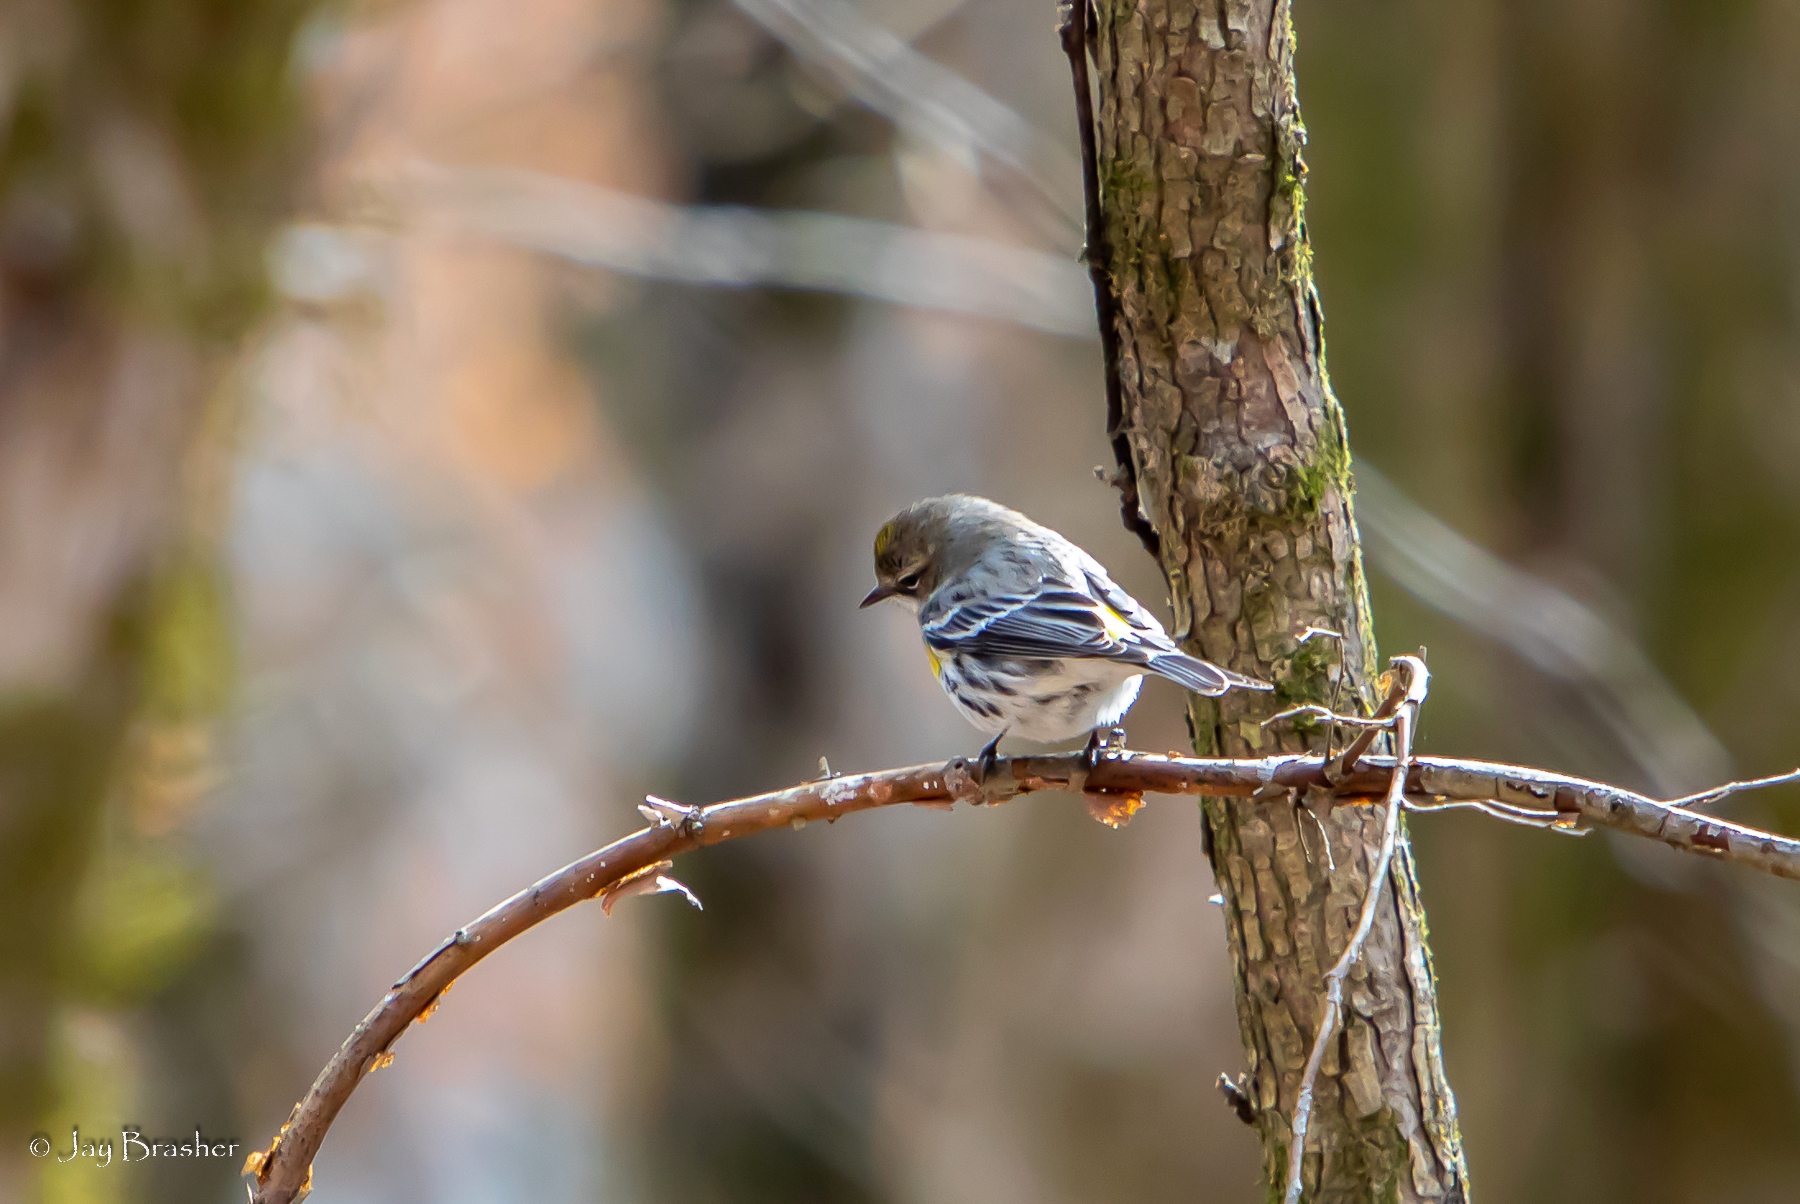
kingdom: Animalia
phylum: Chordata
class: Aves
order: Passeriformes
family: Parulidae
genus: Setophaga
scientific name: Setophaga coronata
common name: Myrtle warbler
